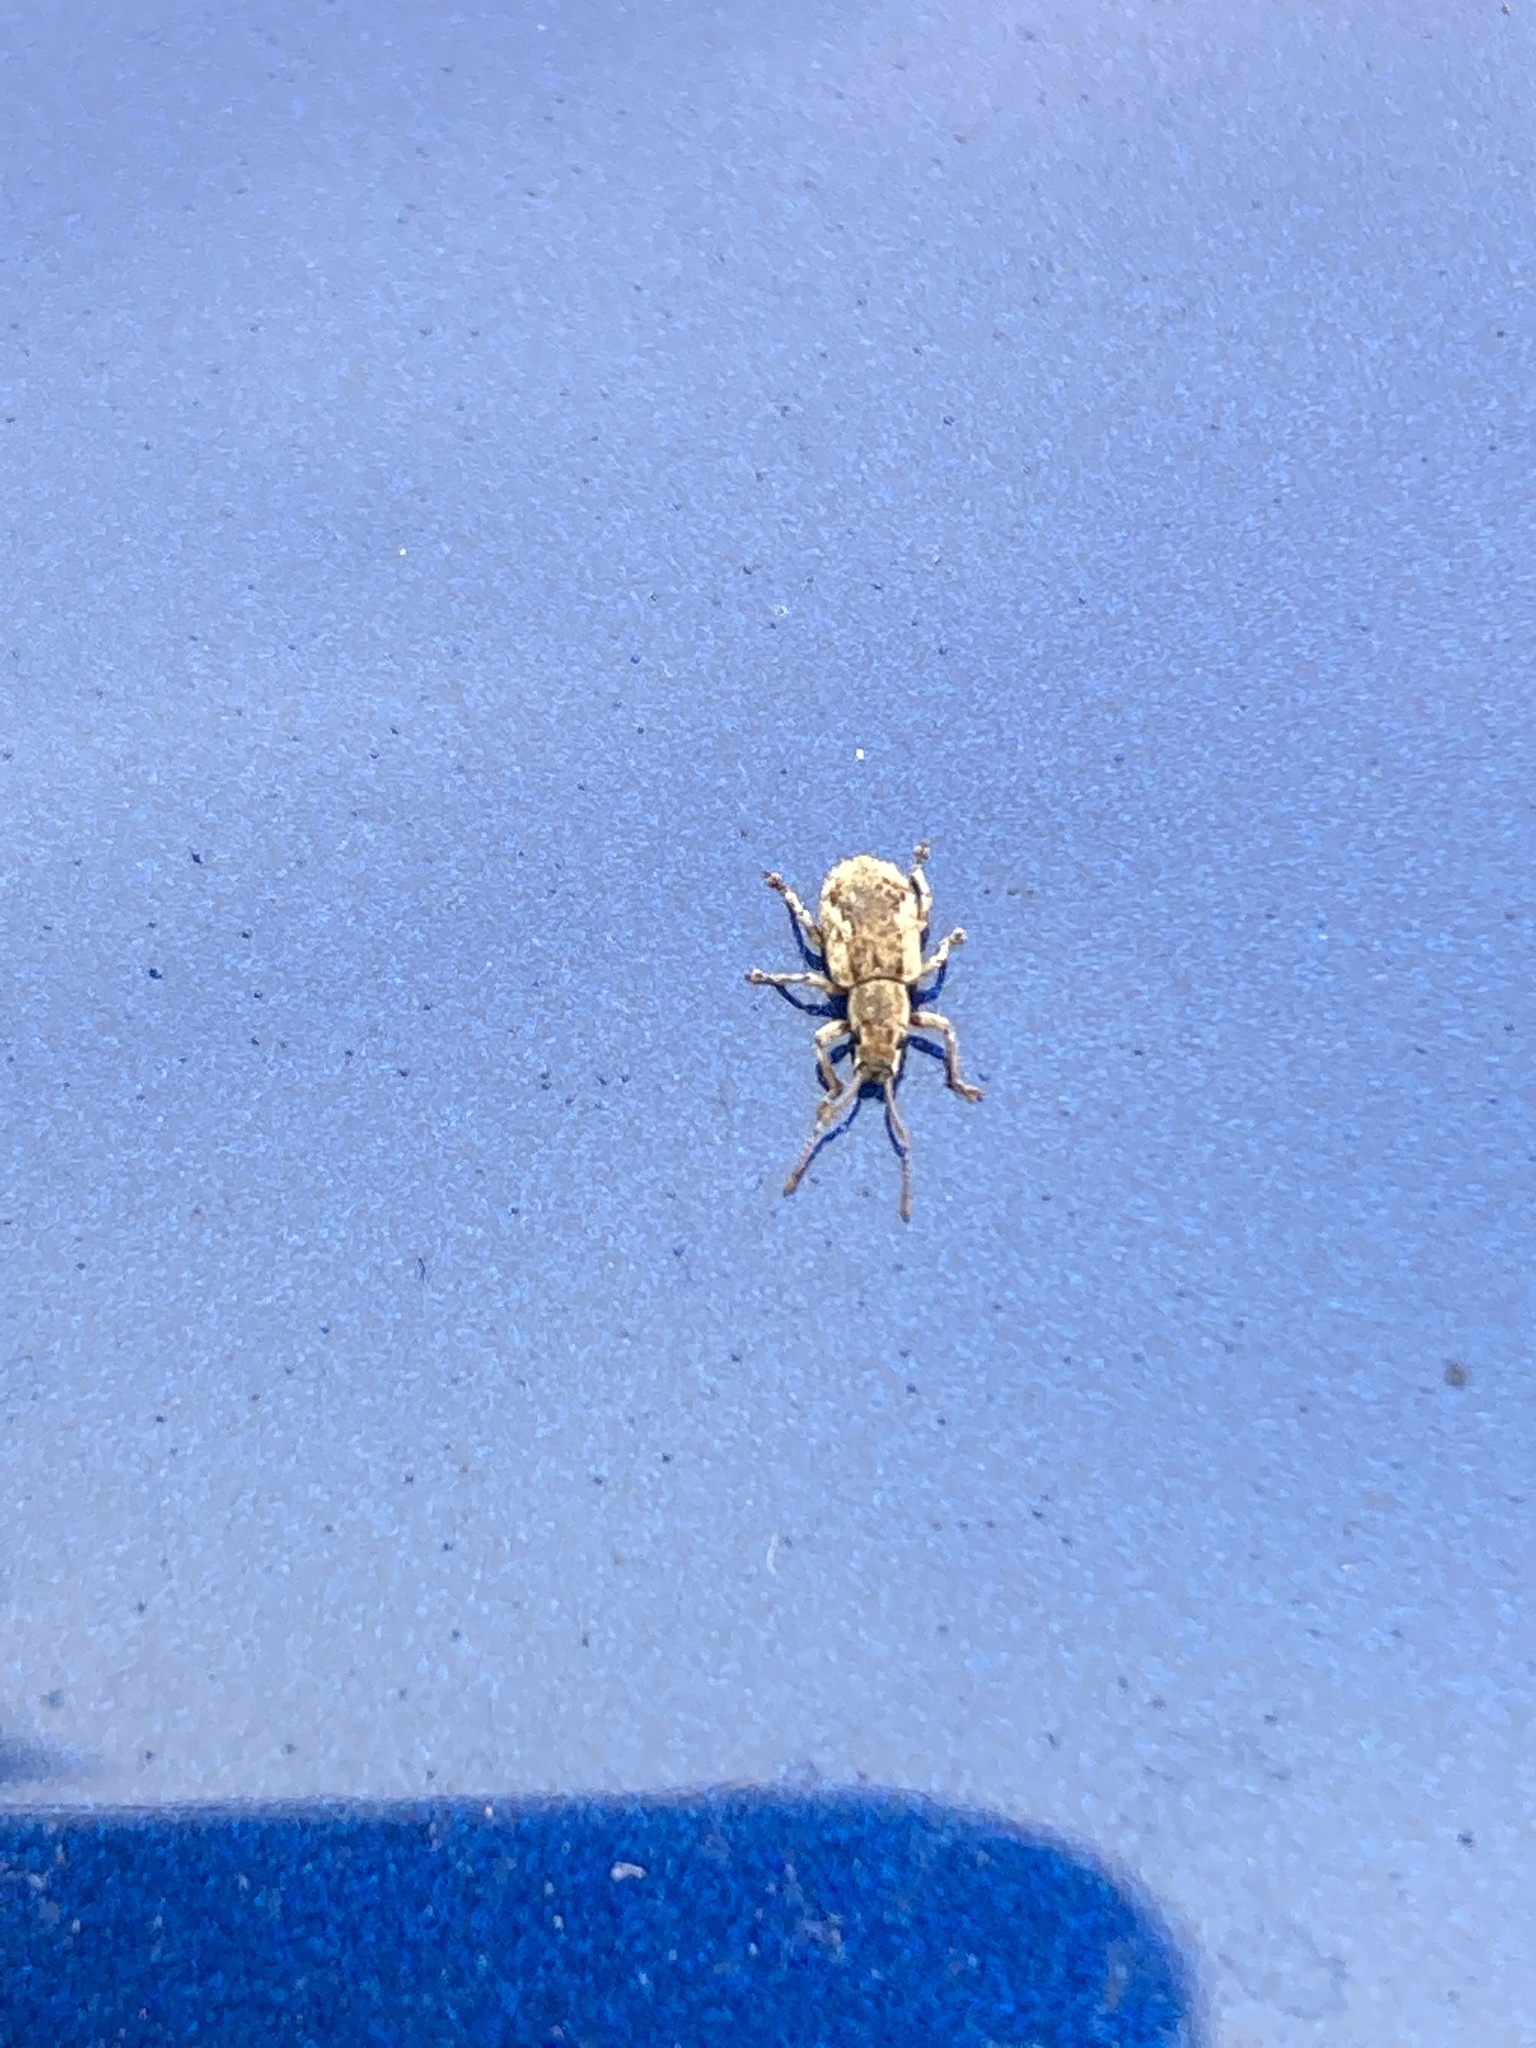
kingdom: Animalia
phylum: Arthropoda
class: Insecta
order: Coleoptera
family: Curculionidae
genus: Pseudoedophrys
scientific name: Pseudoedophrys hilleri
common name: Weevil
